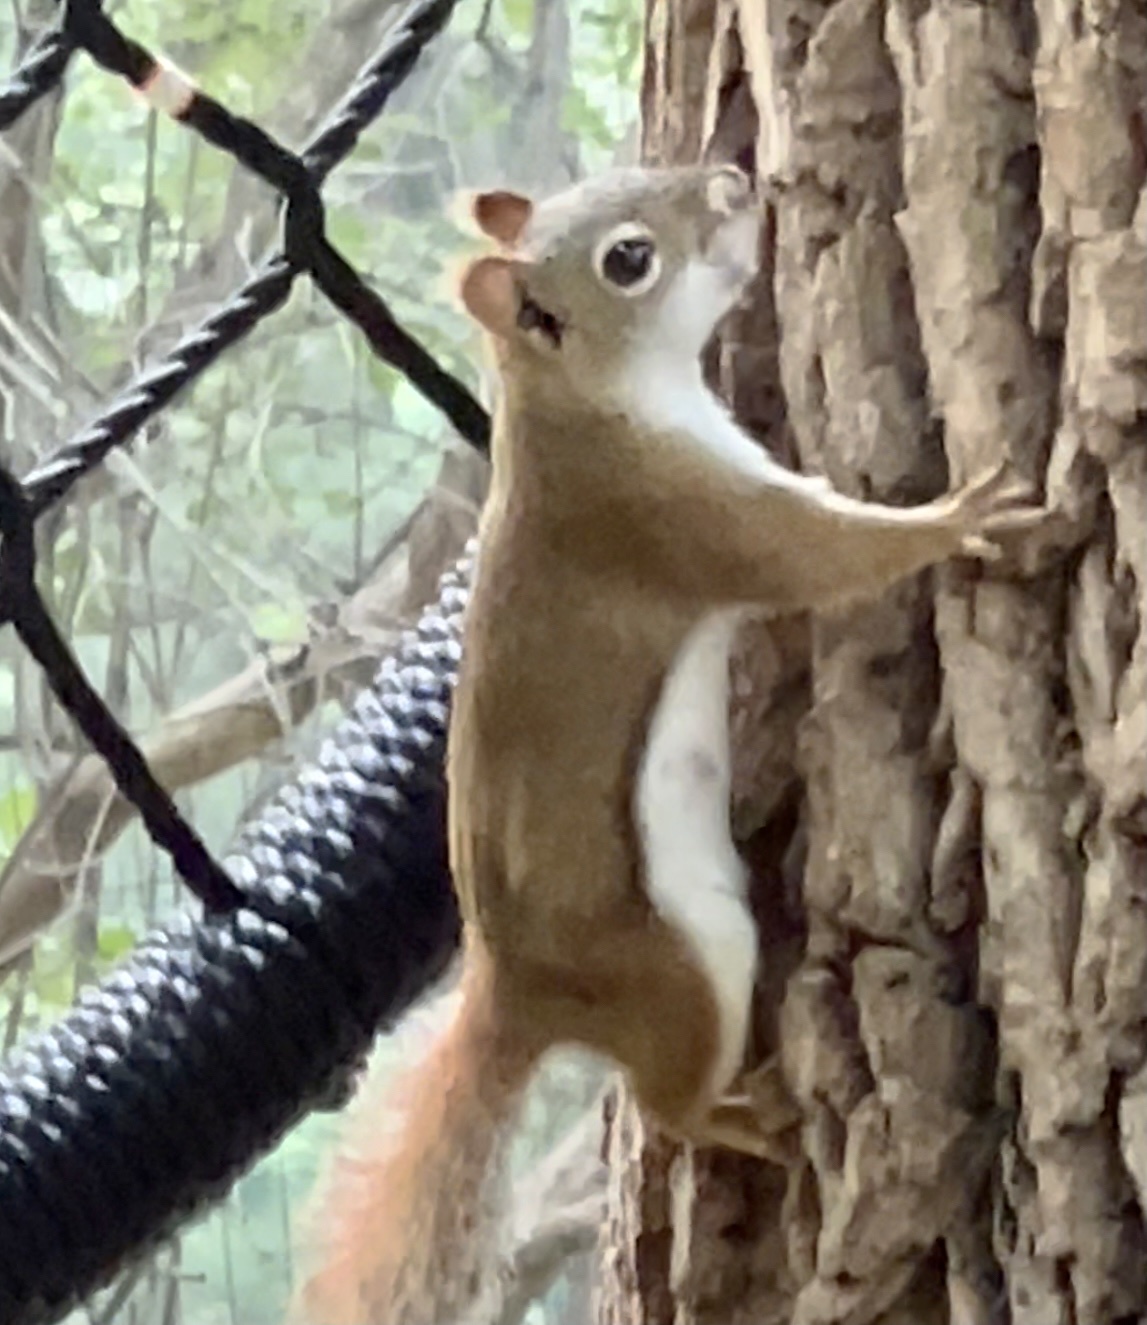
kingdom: Animalia
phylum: Chordata
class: Mammalia
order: Rodentia
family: Sciuridae
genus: Tamiasciurus
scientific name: Tamiasciurus hudsonicus
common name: Red squirrel
